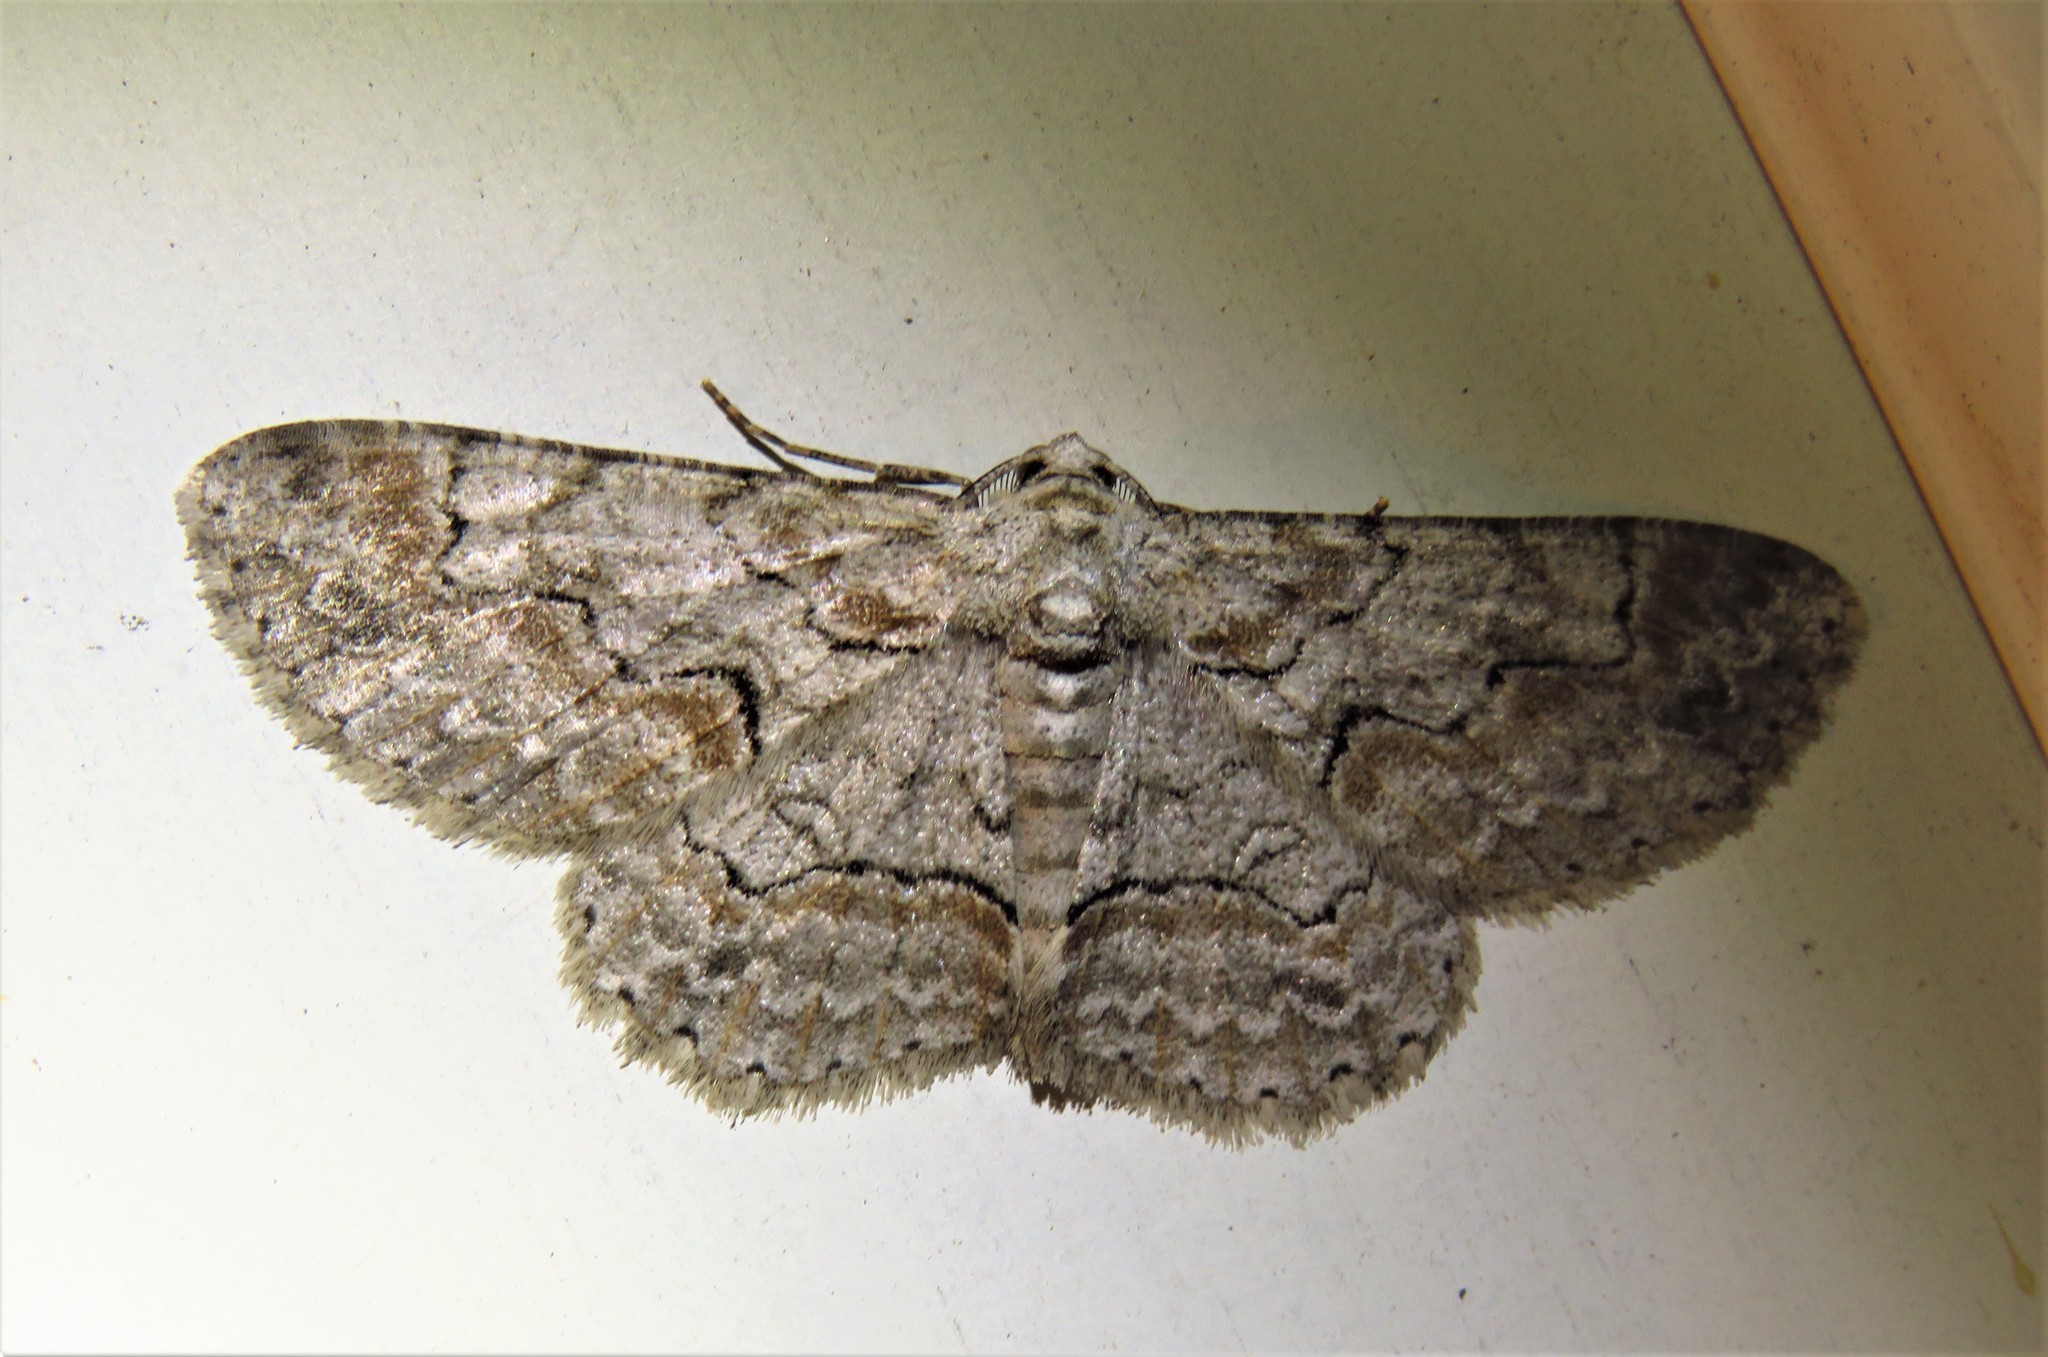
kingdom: Animalia
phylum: Arthropoda
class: Insecta
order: Lepidoptera
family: Geometridae
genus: Iridopsis
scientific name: Iridopsis defectaria
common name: Brown-shaded gray
